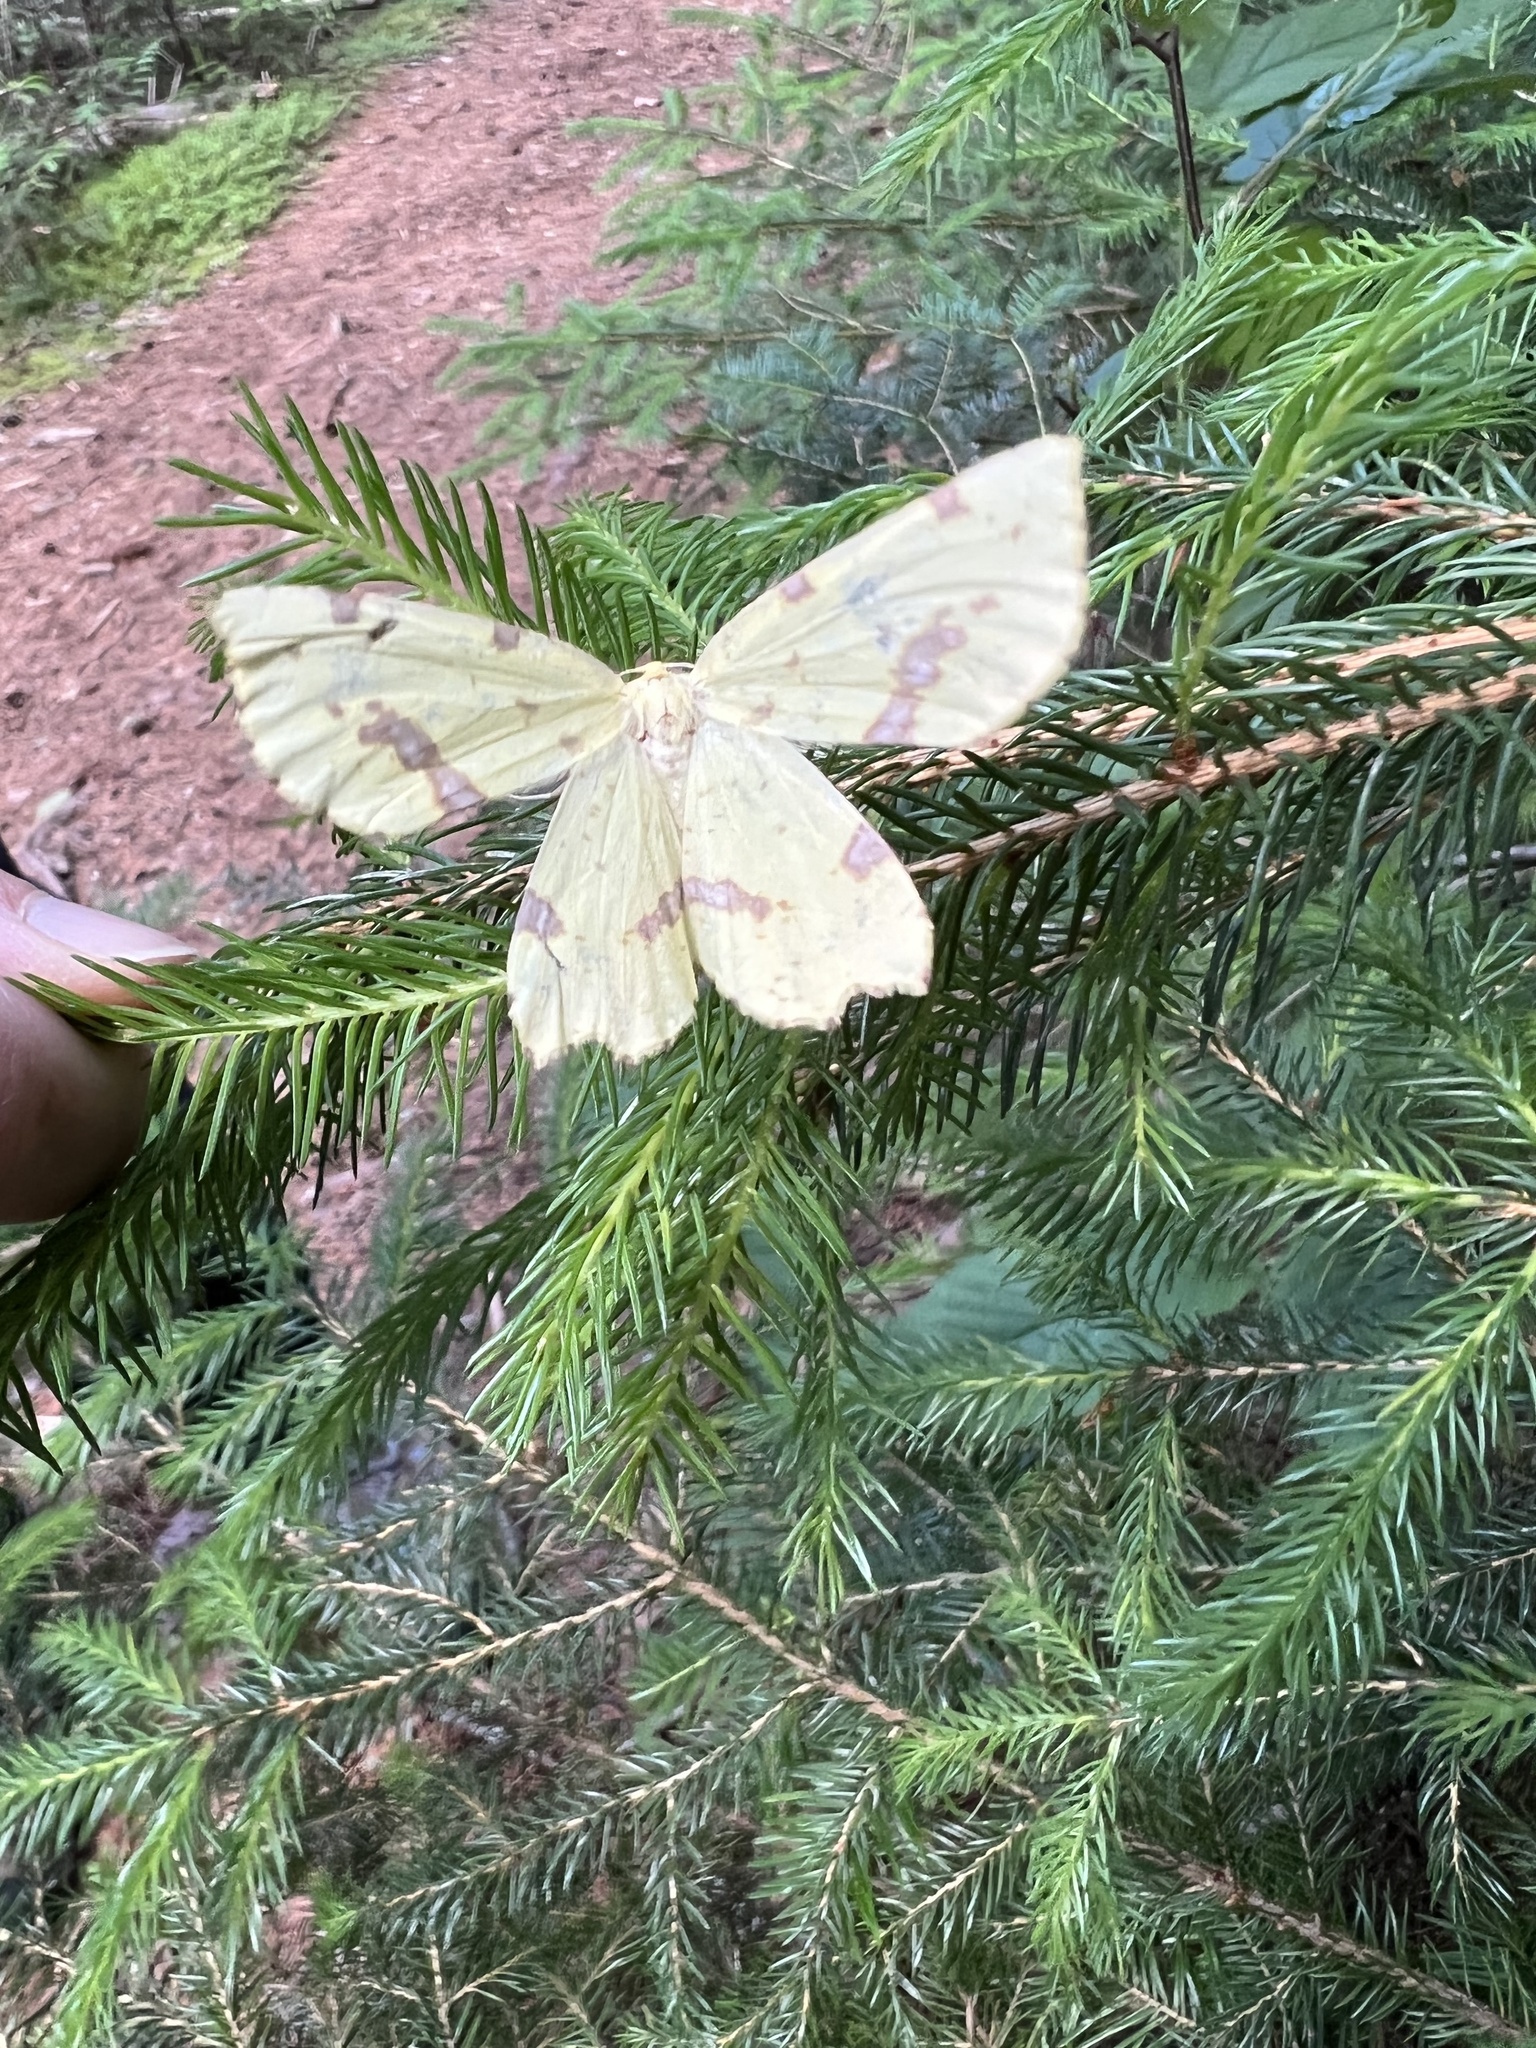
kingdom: Animalia
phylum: Arthropoda
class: Insecta
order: Lepidoptera
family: Geometridae
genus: Xanthotype
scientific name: Xanthotype
